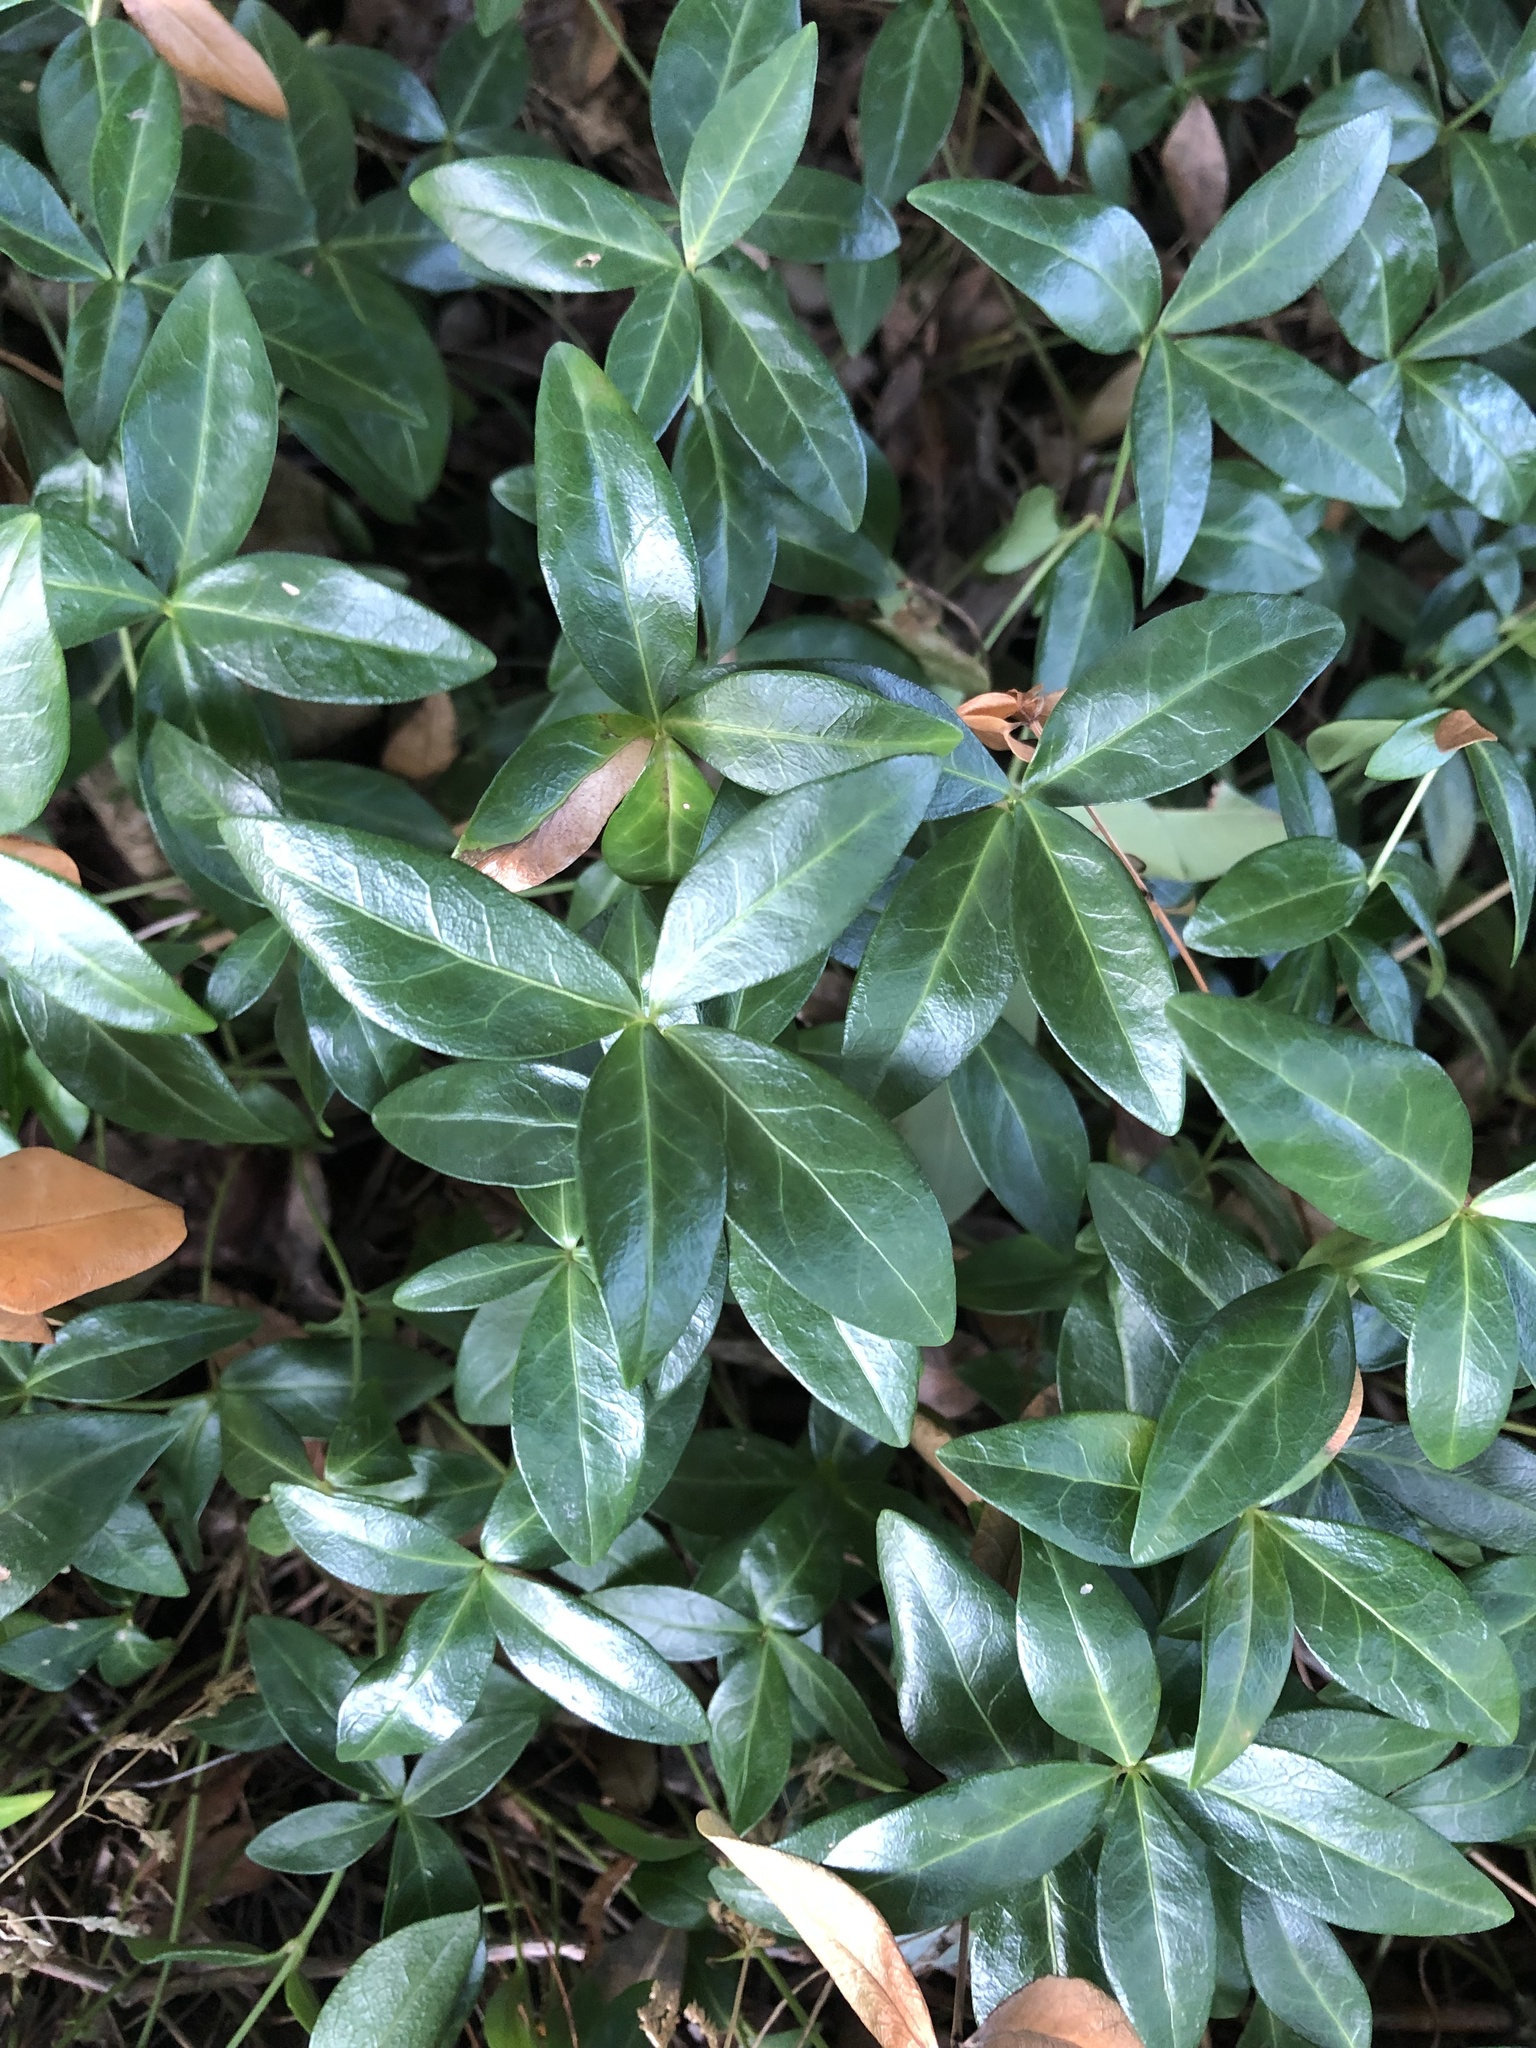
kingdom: Plantae
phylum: Tracheophyta
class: Magnoliopsida
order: Gentianales
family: Apocynaceae
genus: Vinca
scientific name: Vinca minor
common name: Lesser periwinkle
